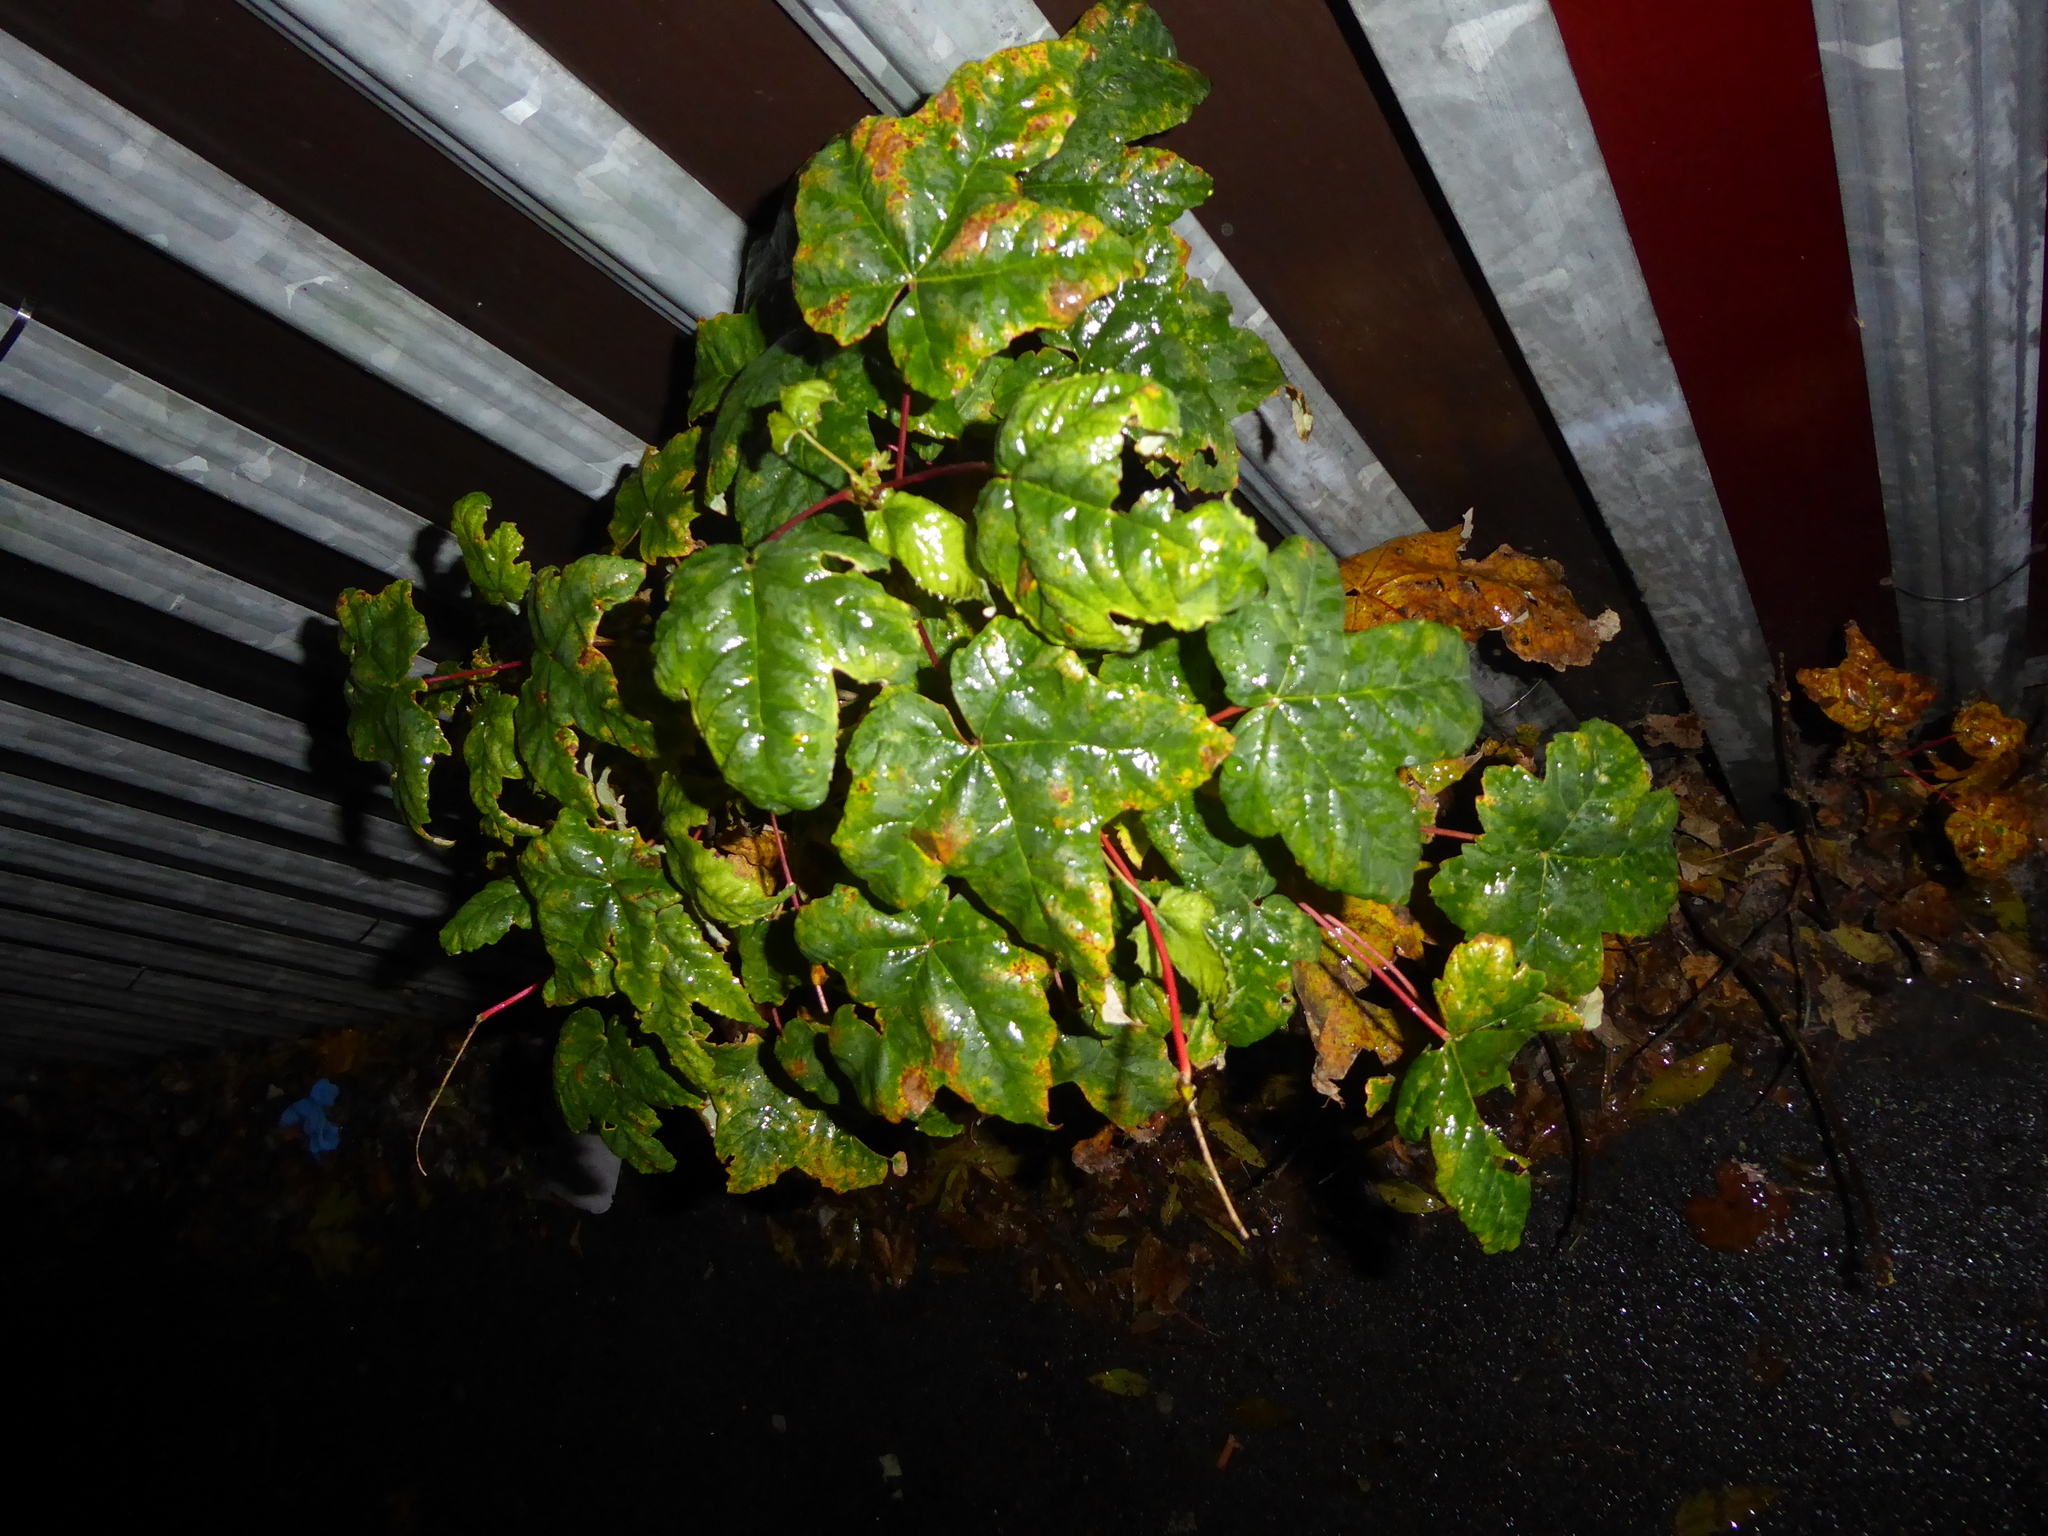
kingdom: Plantae
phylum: Tracheophyta
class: Magnoliopsida
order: Sapindales
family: Sapindaceae
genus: Acer
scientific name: Acer pseudoplatanus
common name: Sycamore
